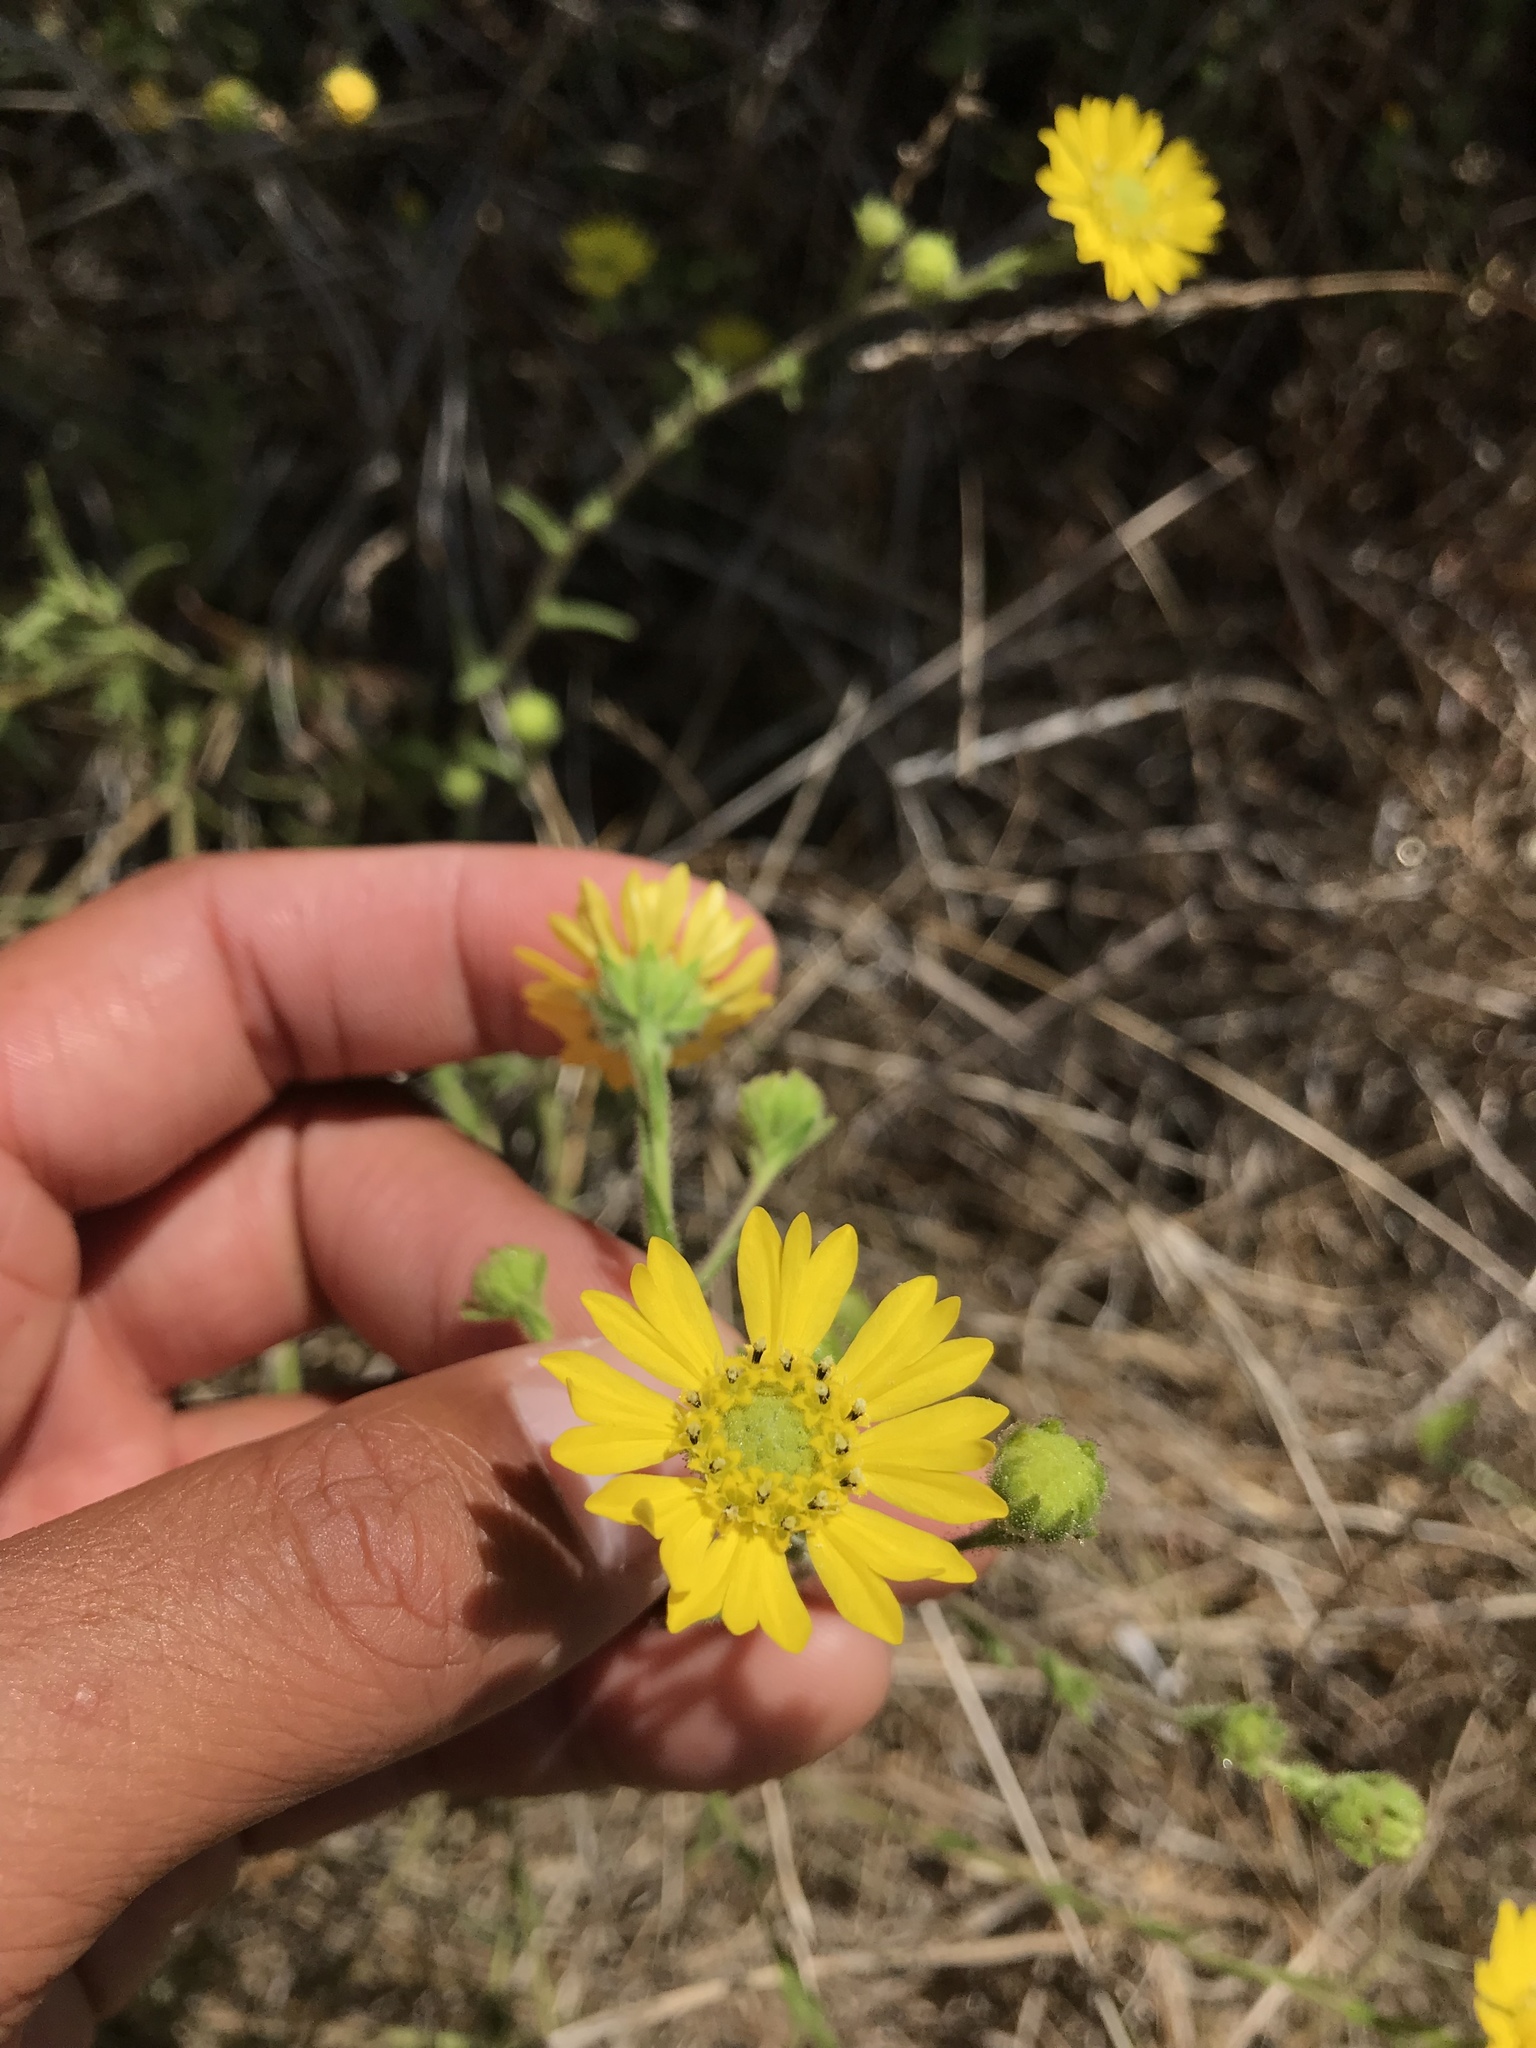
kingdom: Plantae
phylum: Tracheophyta
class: Magnoliopsida
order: Asterales
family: Asteraceae
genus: Hemizonia
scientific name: Hemizonia congesta
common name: Hayfield tarweed
